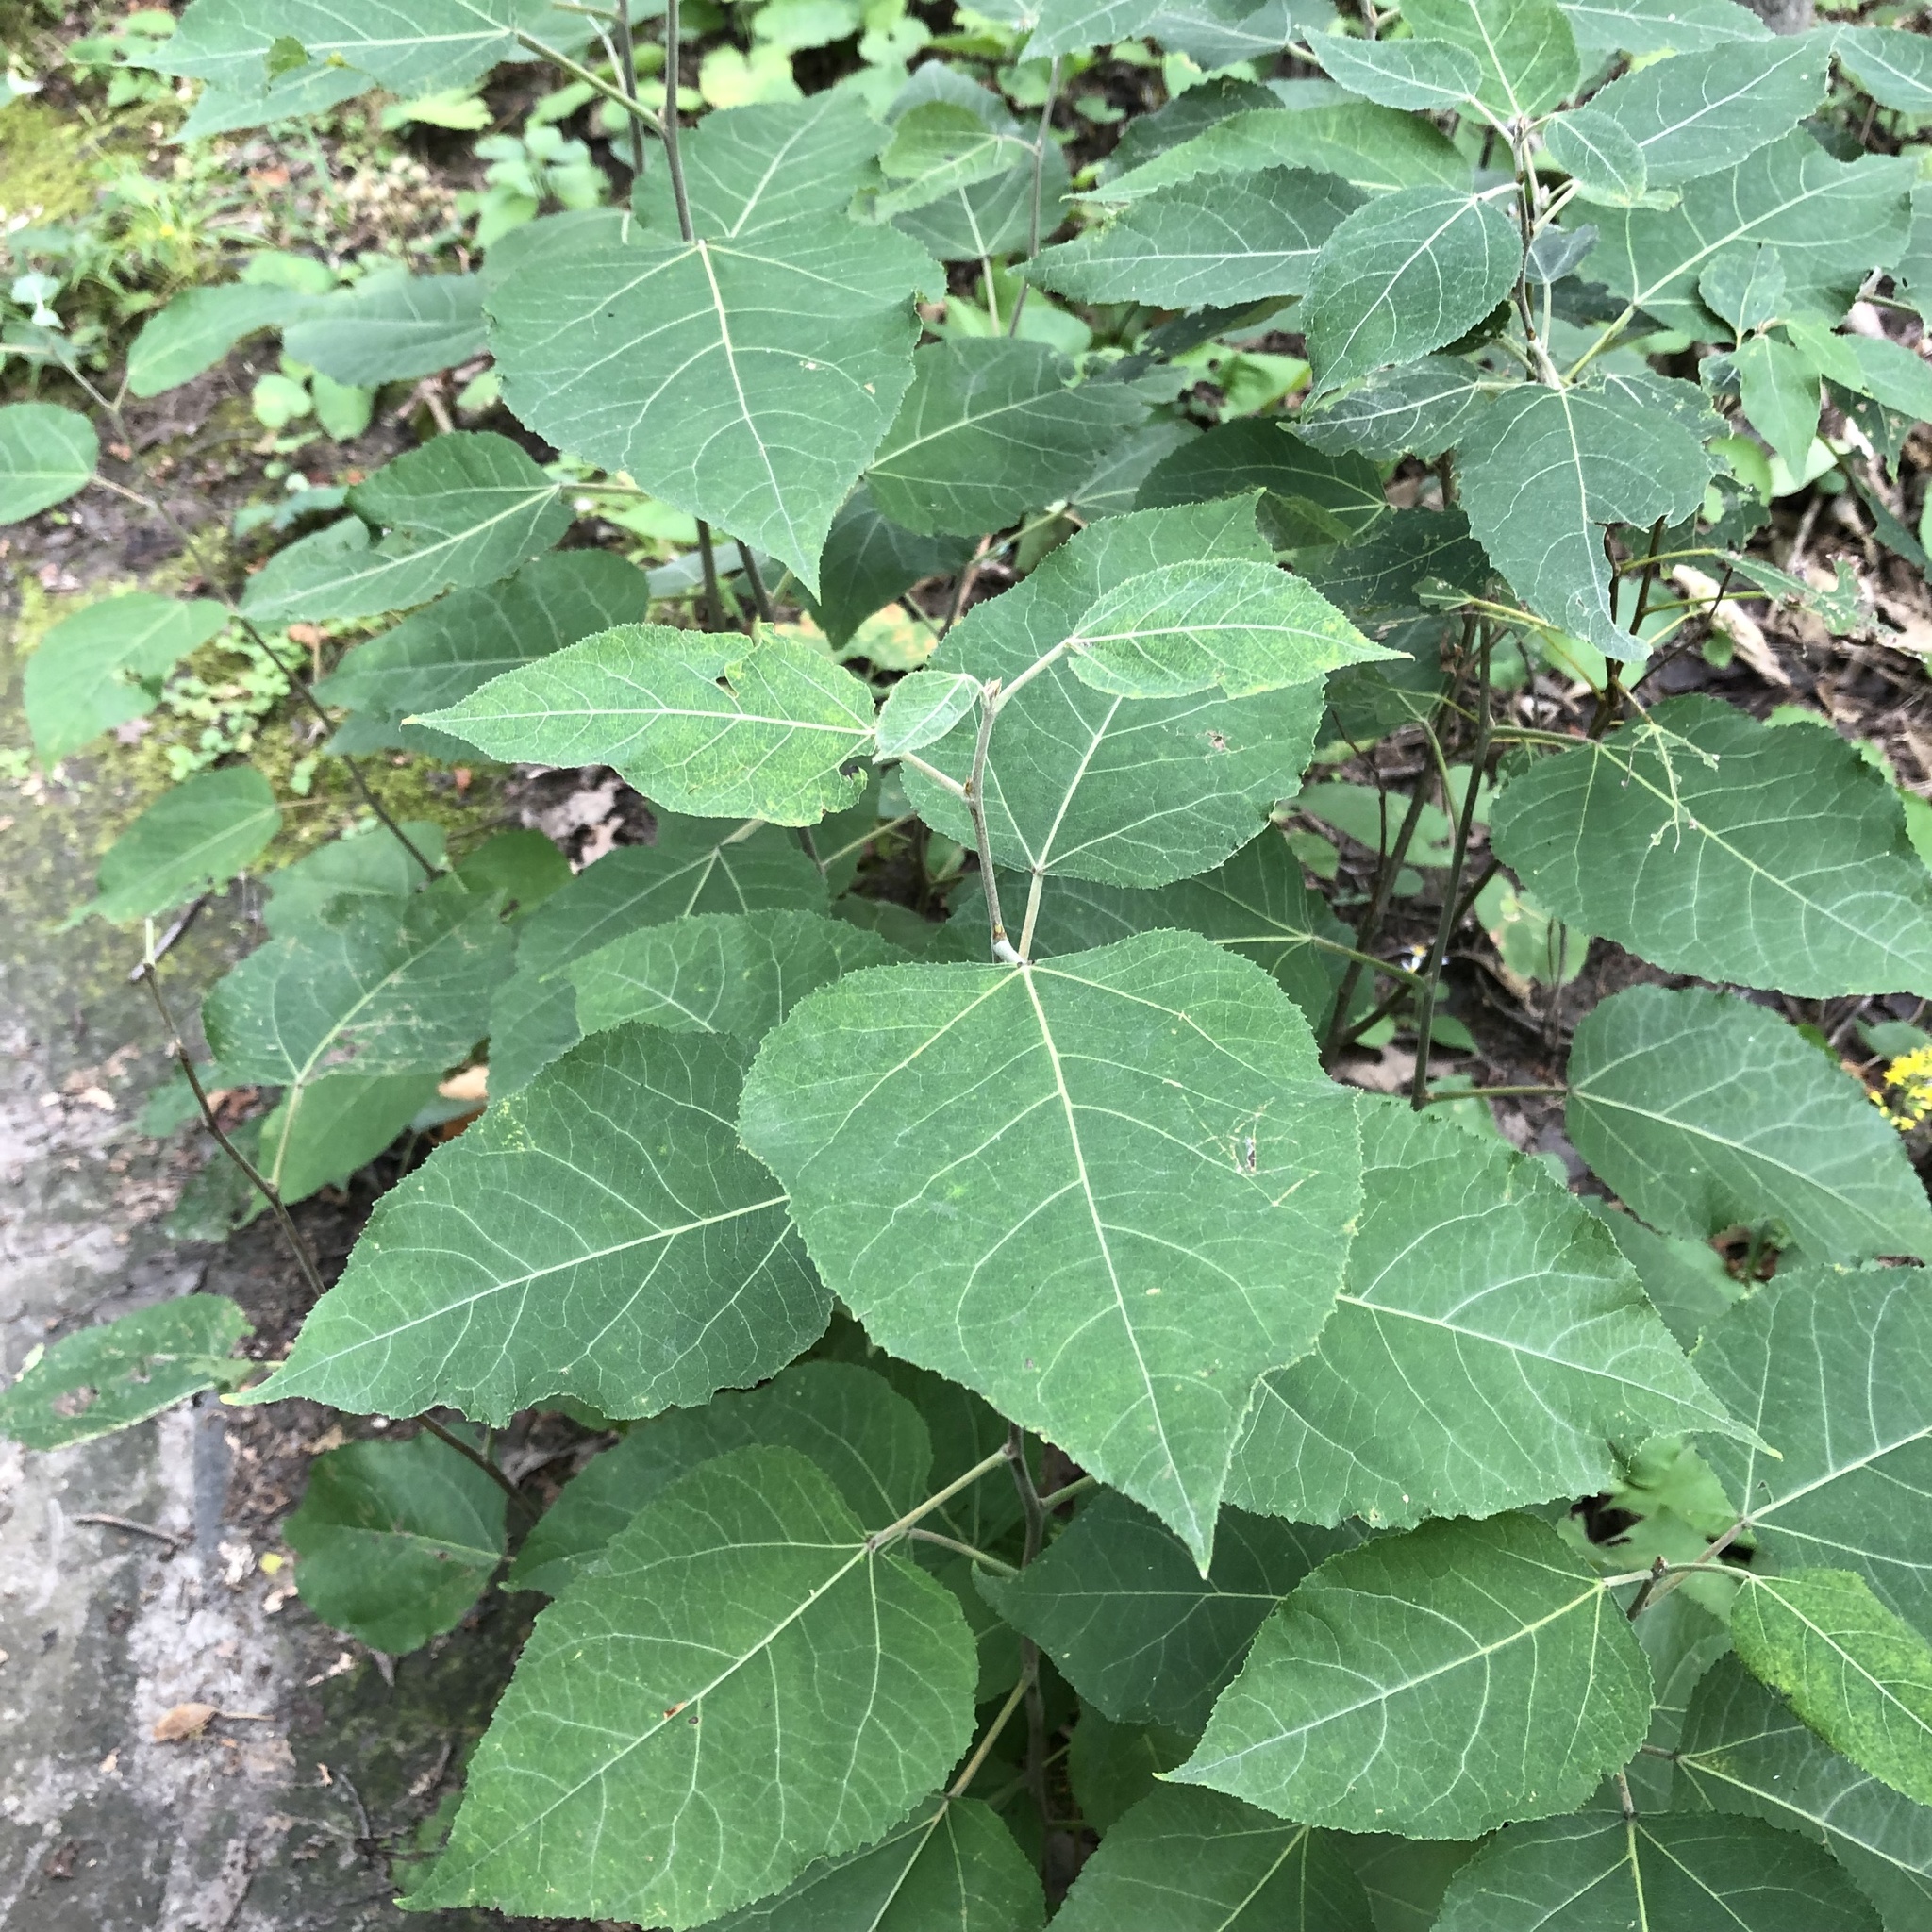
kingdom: Plantae
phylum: Tracheophyta
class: Magnoliopsida
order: Malpighiales
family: Salicaceae
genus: Populus
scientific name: Populus grandidentata
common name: Bigtooth aspen
